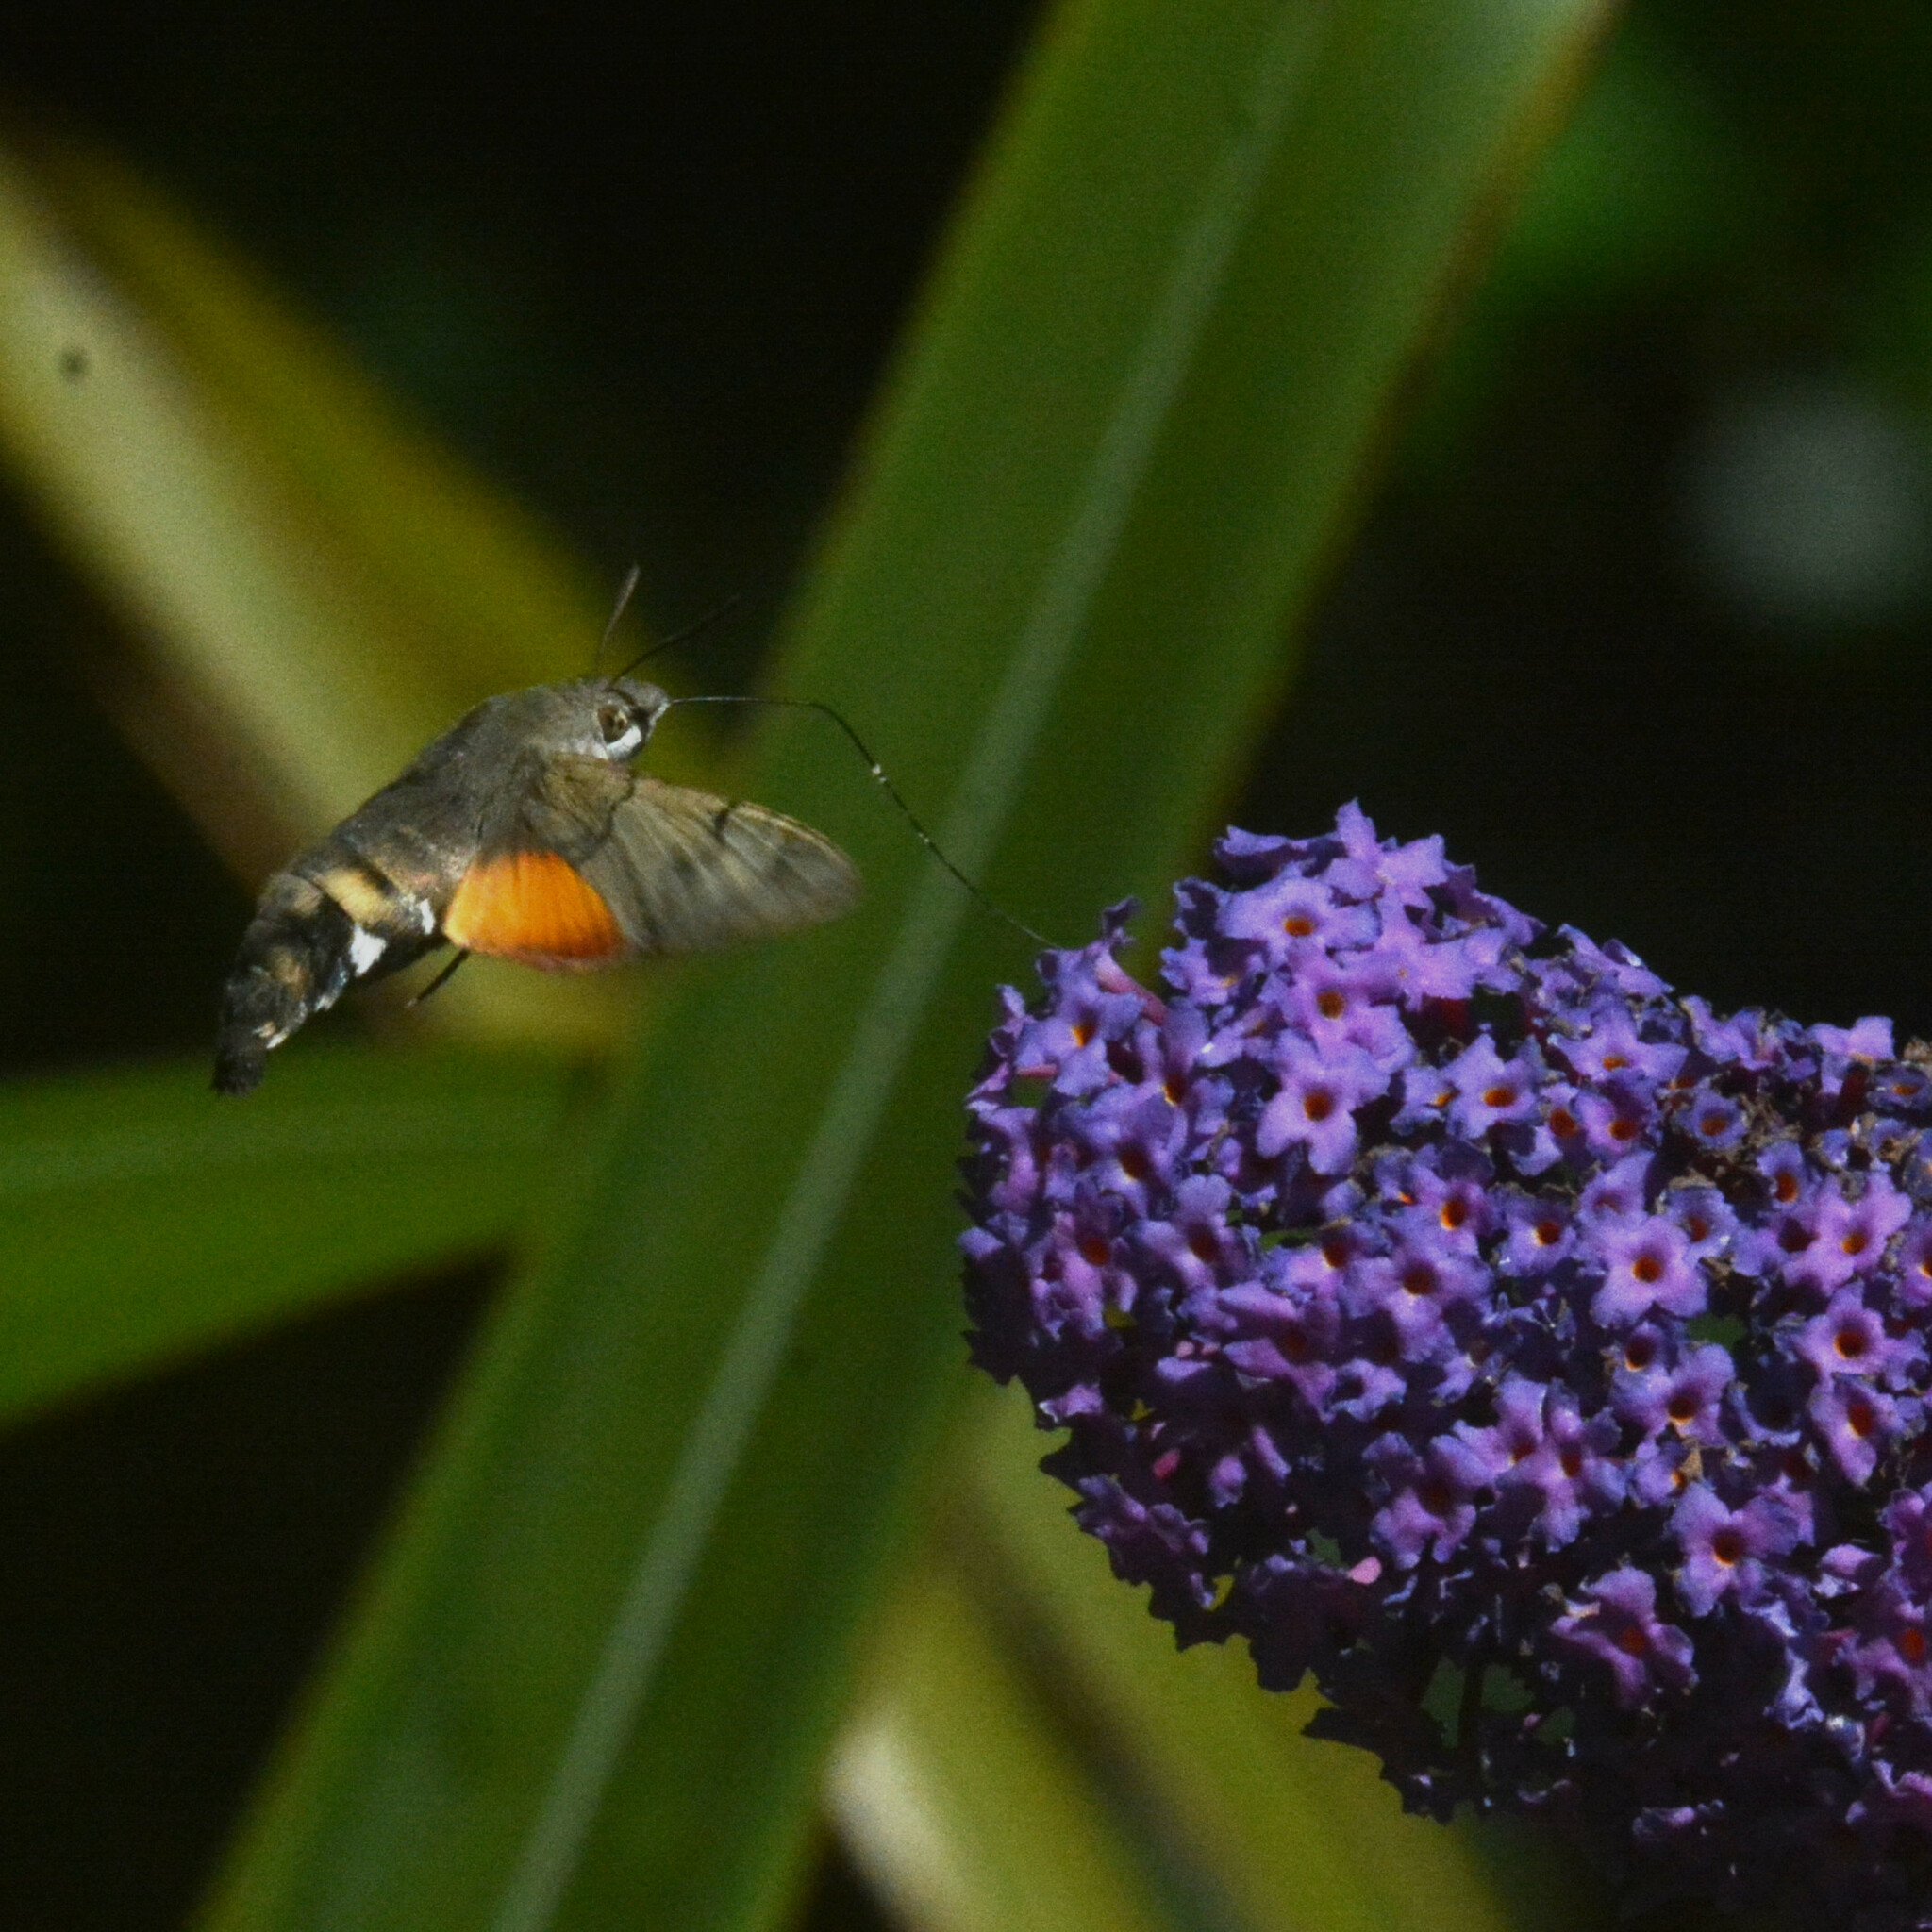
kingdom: Animalia
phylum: Arthropoda
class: Insecta
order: Lepidoptera
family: Sphingidae
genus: Macroglossum
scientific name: Macroglossum stellatarum
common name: Humming-bird hawk-moth
